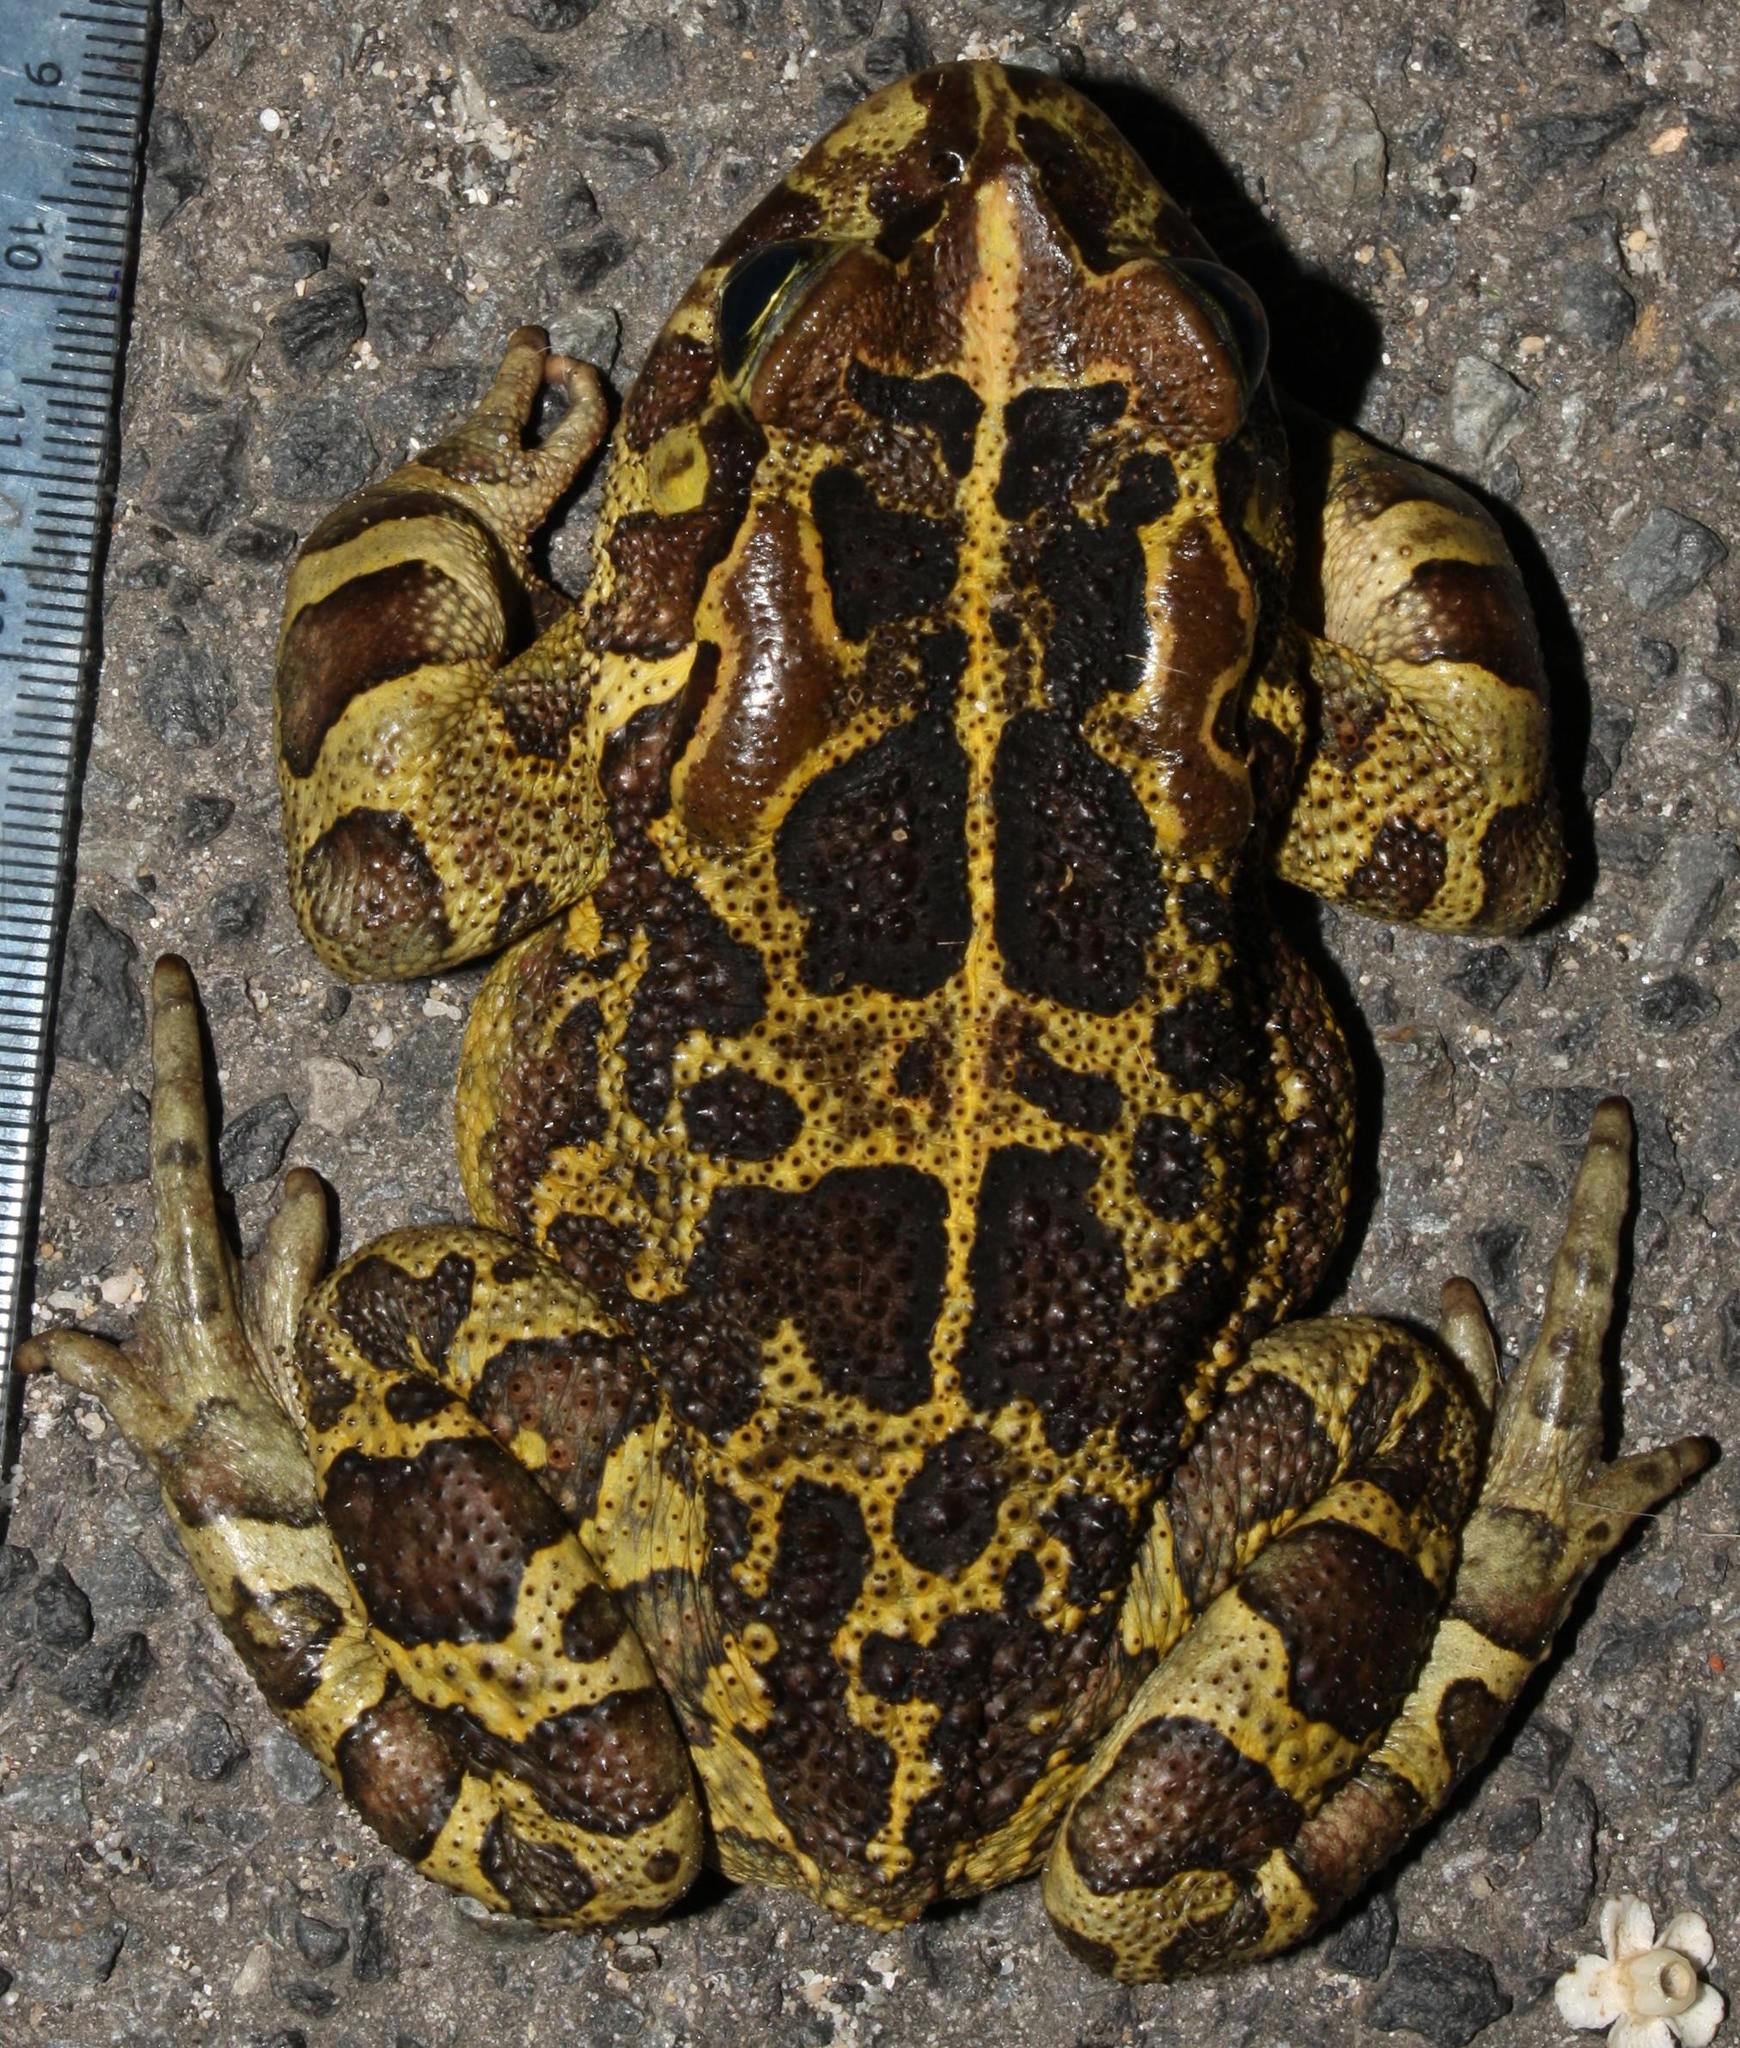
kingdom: Animalia
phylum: Chordata
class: Amphibia
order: Anura
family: Bufonidae
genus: Sclerophrys
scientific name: Sclerophrys pantherina
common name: Panther toad
